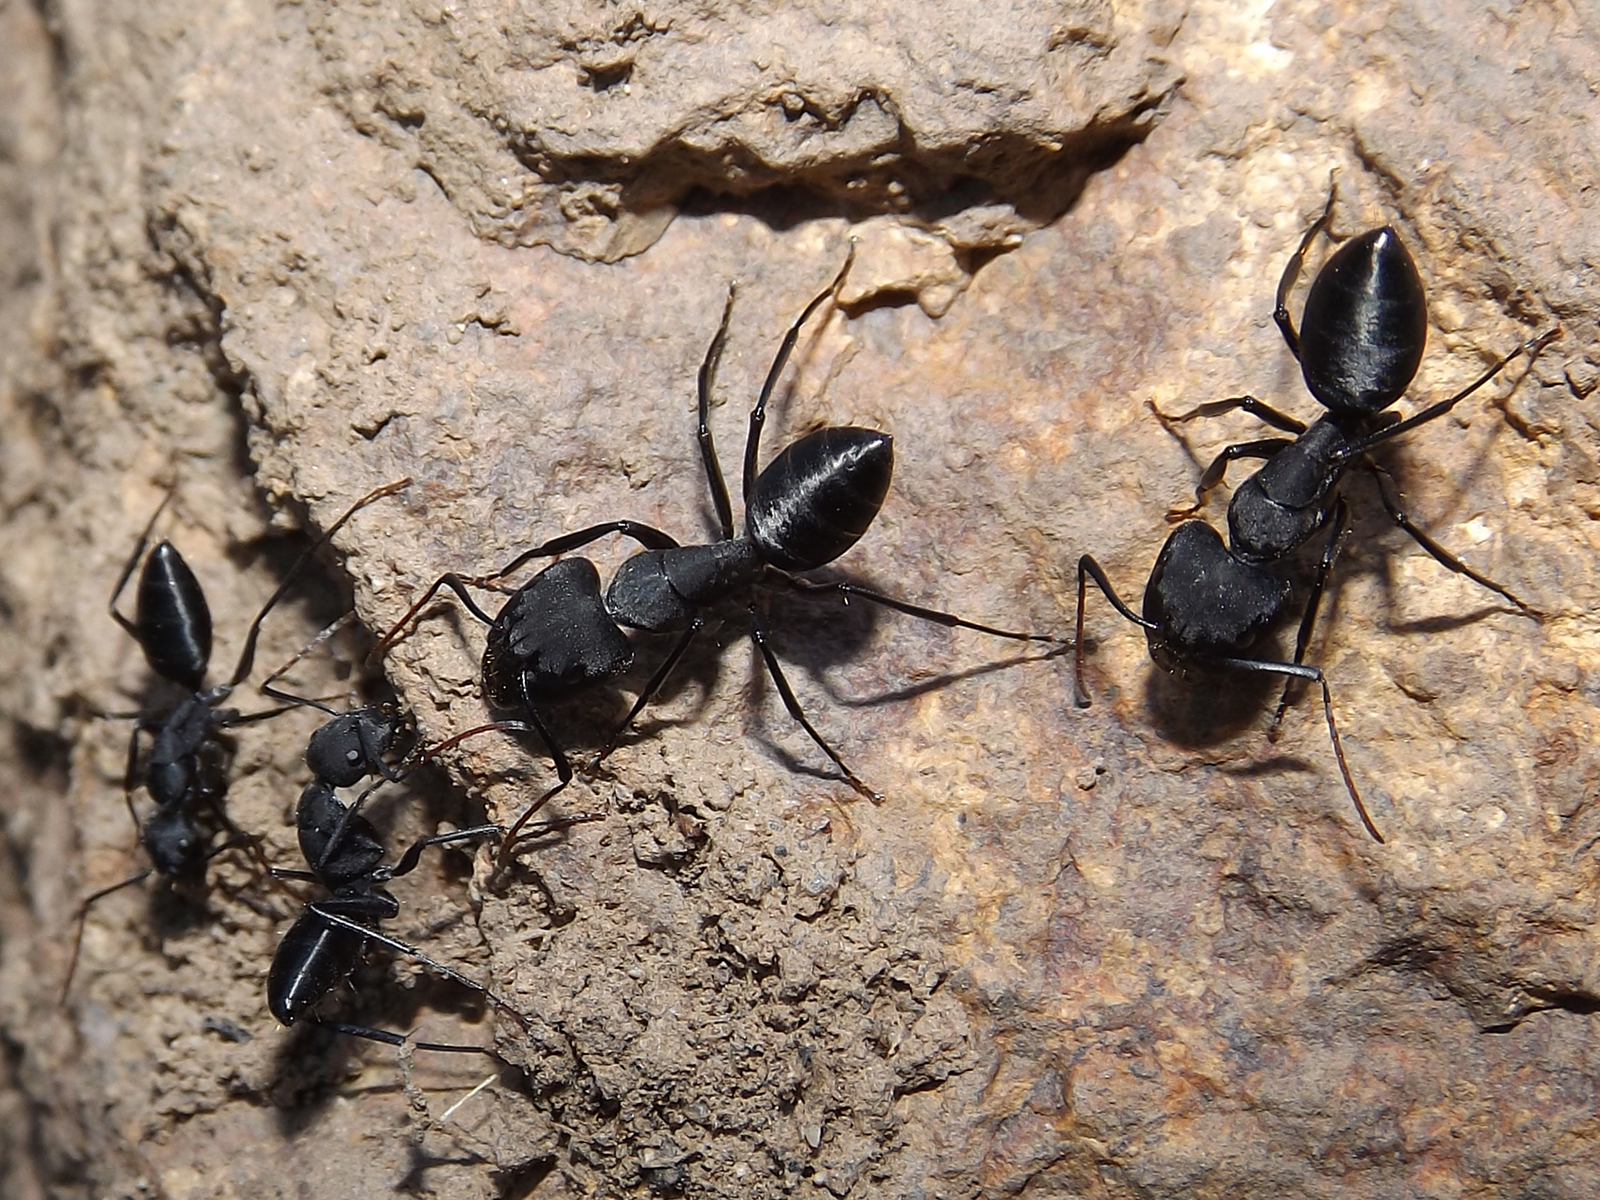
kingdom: Animalia
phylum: Arthropoda
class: Insecta
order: Hymenoptera
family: Formicidae
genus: Camponotus
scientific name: Camponotus morosus
